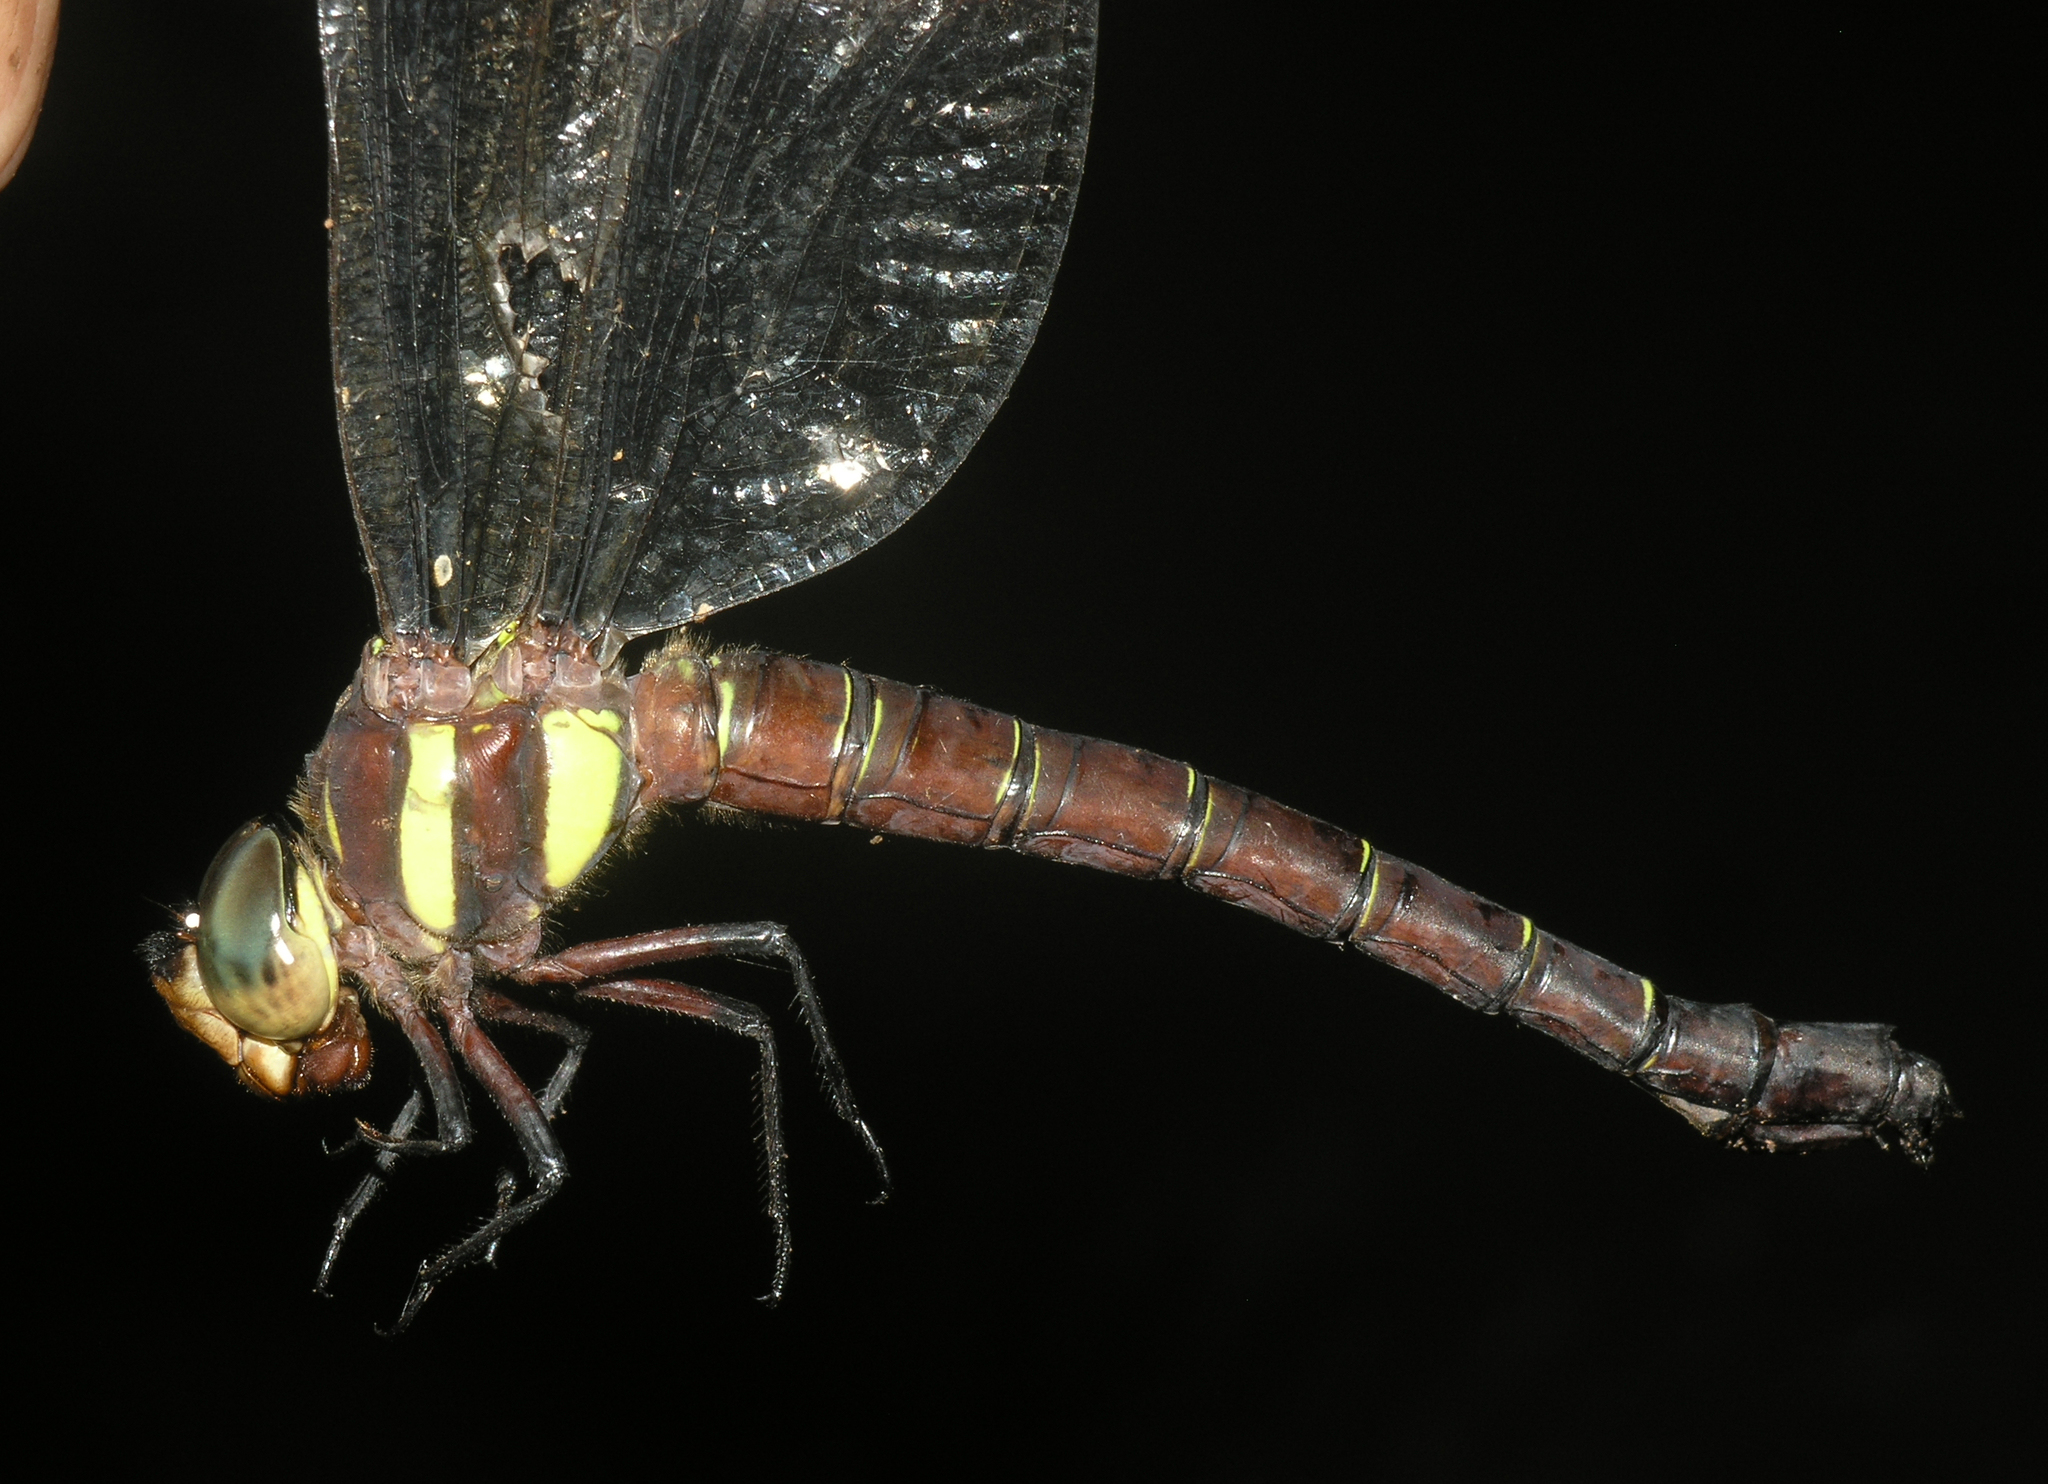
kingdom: Animalia
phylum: Arthropoda
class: Insecta
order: Odonata
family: Aeshnidae
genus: Tetracanthagyna
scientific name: Tetracanthagyna waterhousei
